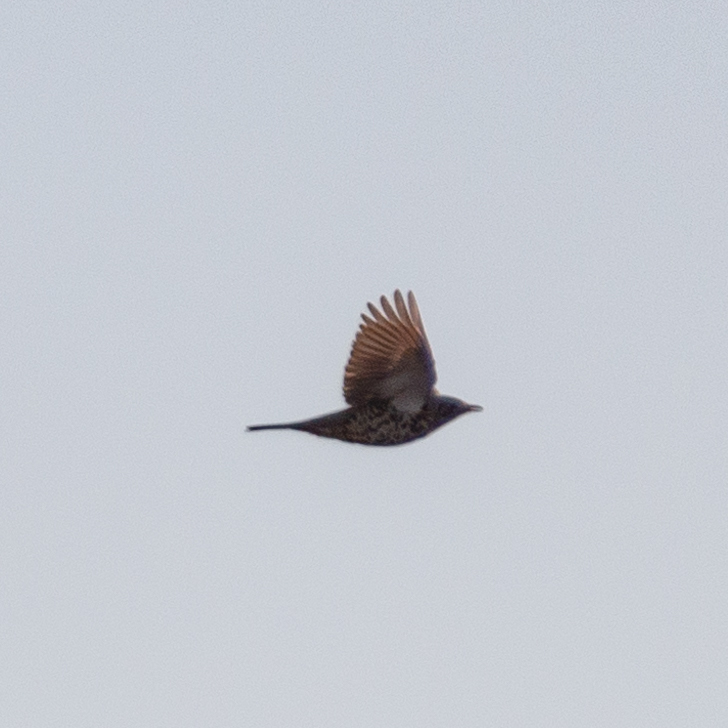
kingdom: Animalia
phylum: Chordata
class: Aves
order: Passeriformes
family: Turdidae
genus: Turdus
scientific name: Turdus viscivorus
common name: Mistle thrush
